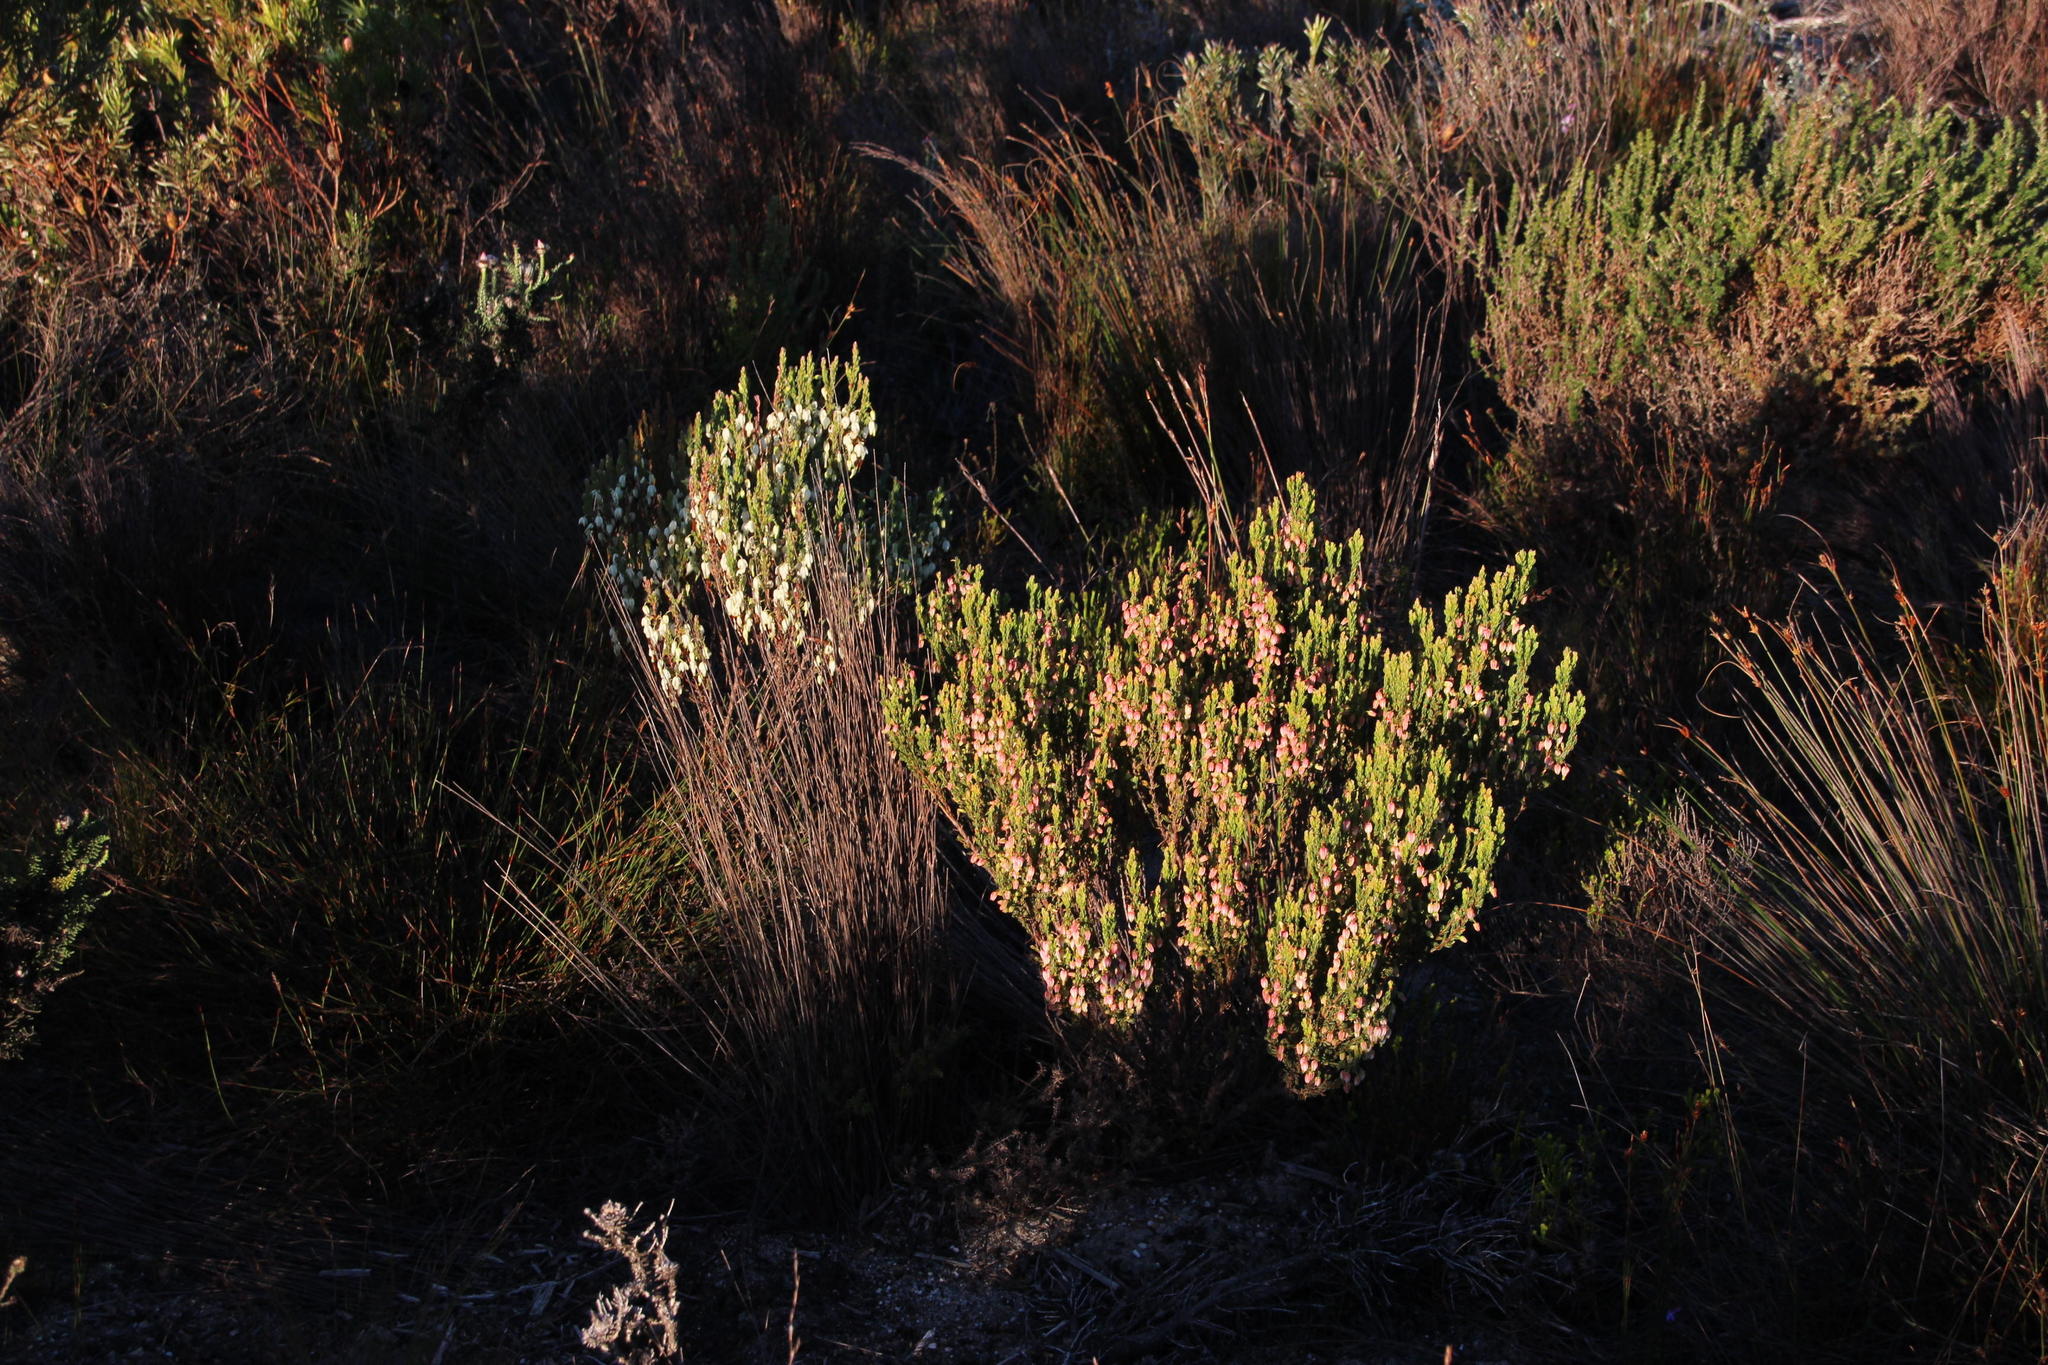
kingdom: Plantae
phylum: Tracheophyta
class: Magnoliopsida
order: Ericales
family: Ericaceae
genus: Erica
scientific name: Erica plukenetii
